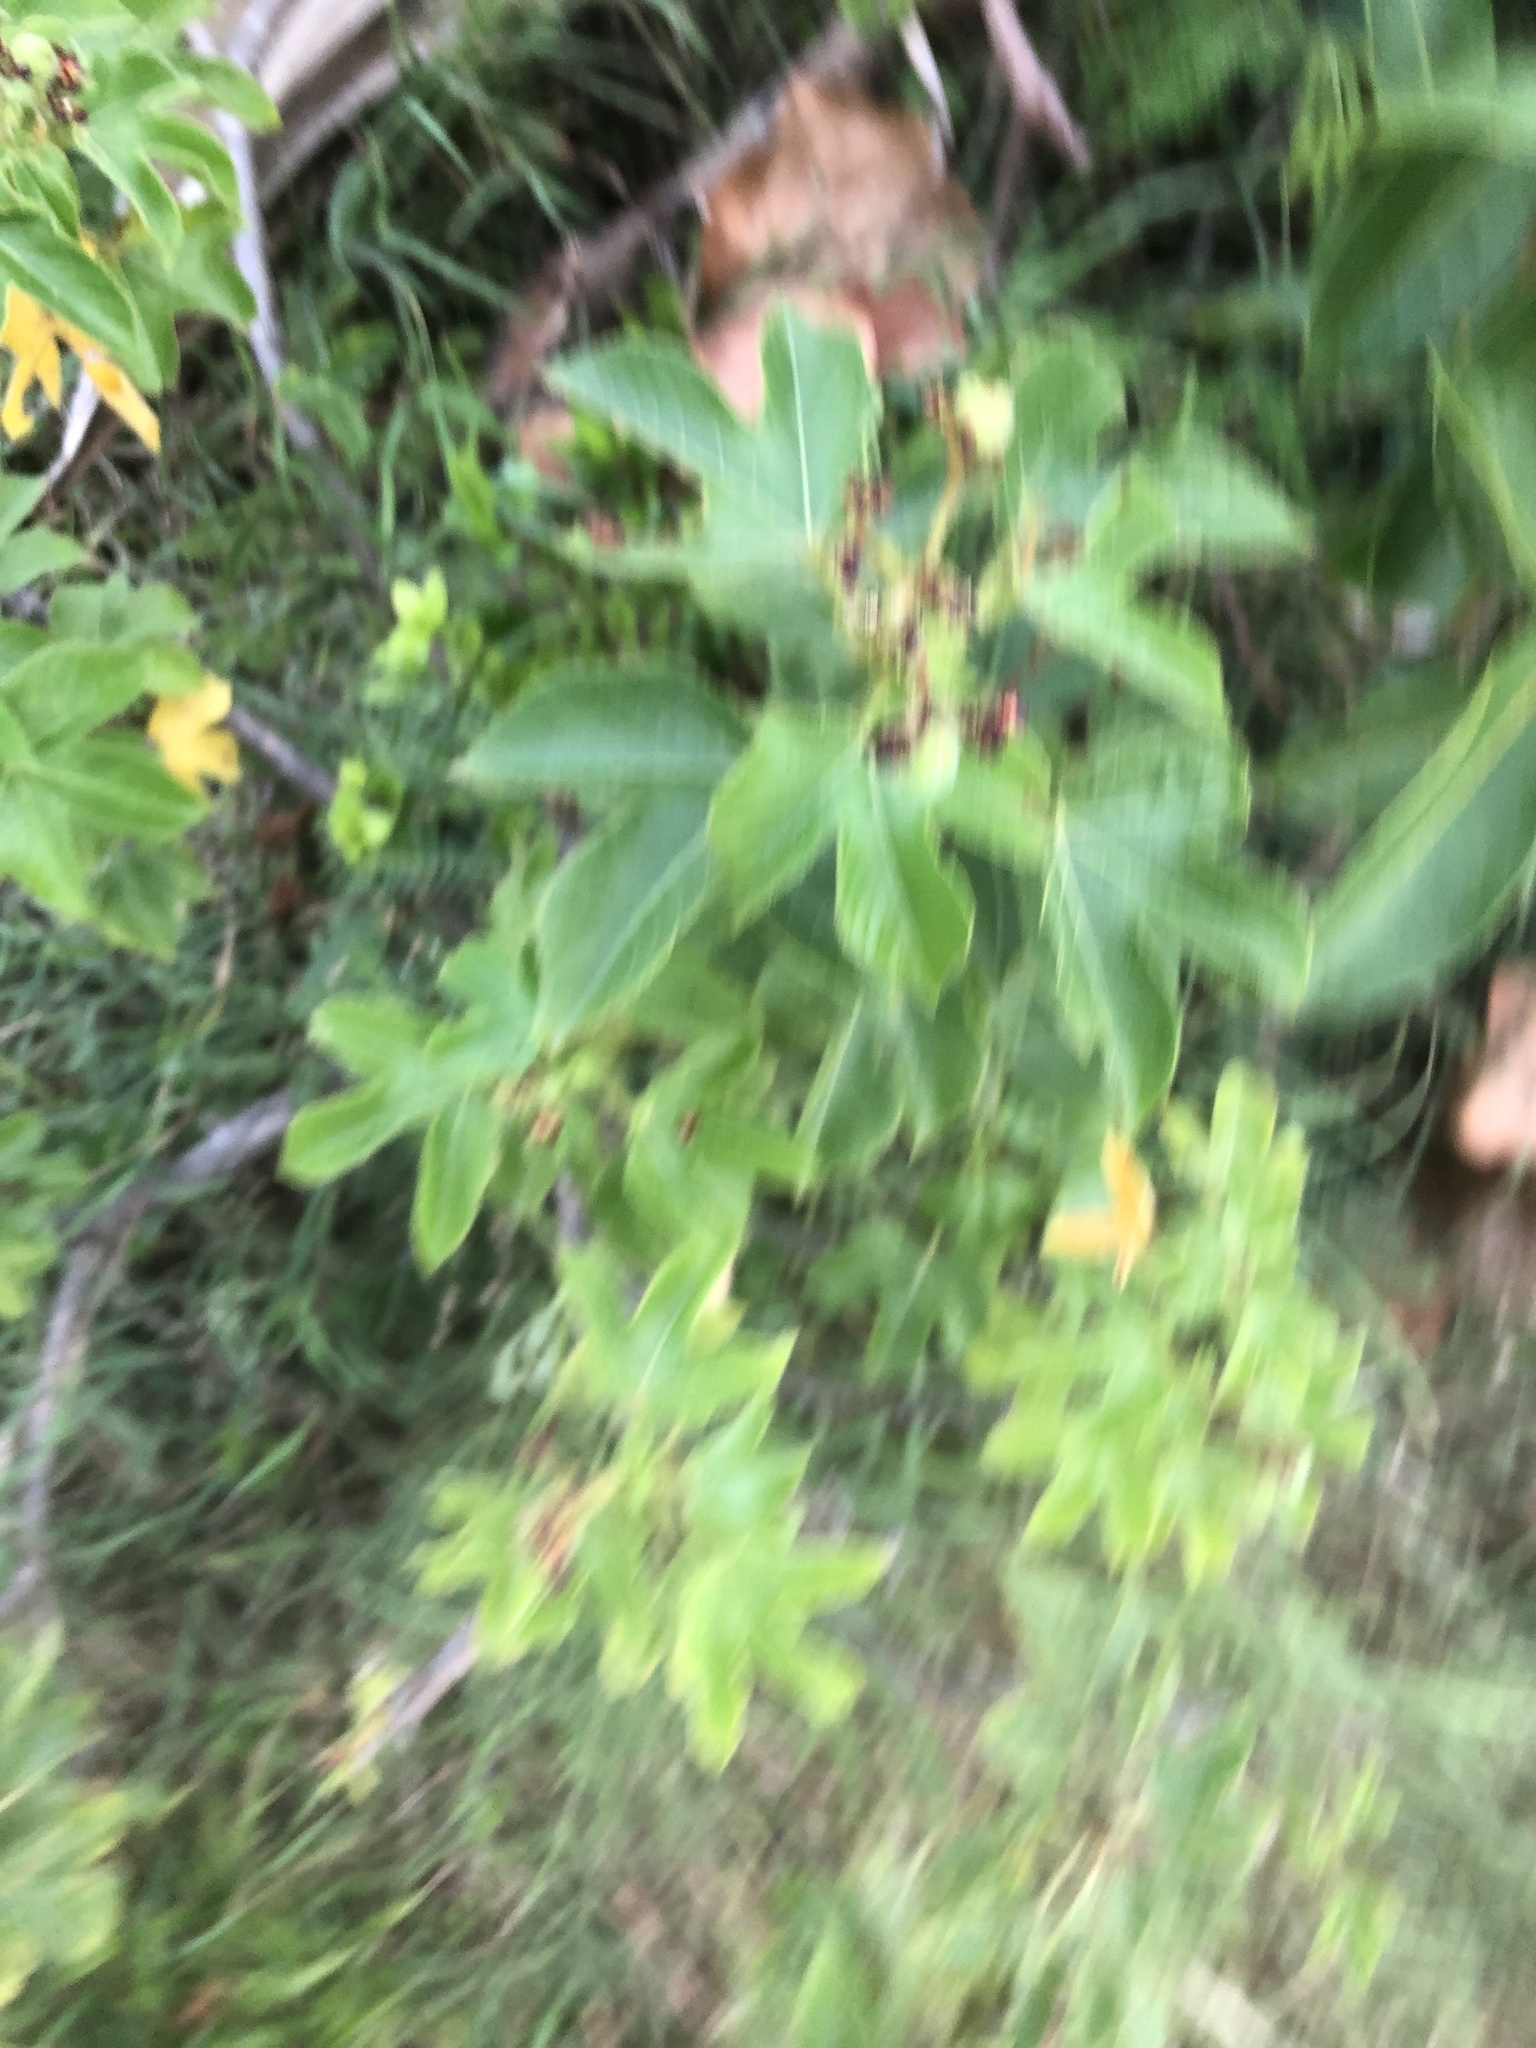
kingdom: Plantae
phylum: Tracheophyta
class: Magnoliopsida
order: Malpighiales
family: Euphorbiaceae
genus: Jatropha
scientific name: Jatropha gossypiifolia
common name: Bellyache bush
